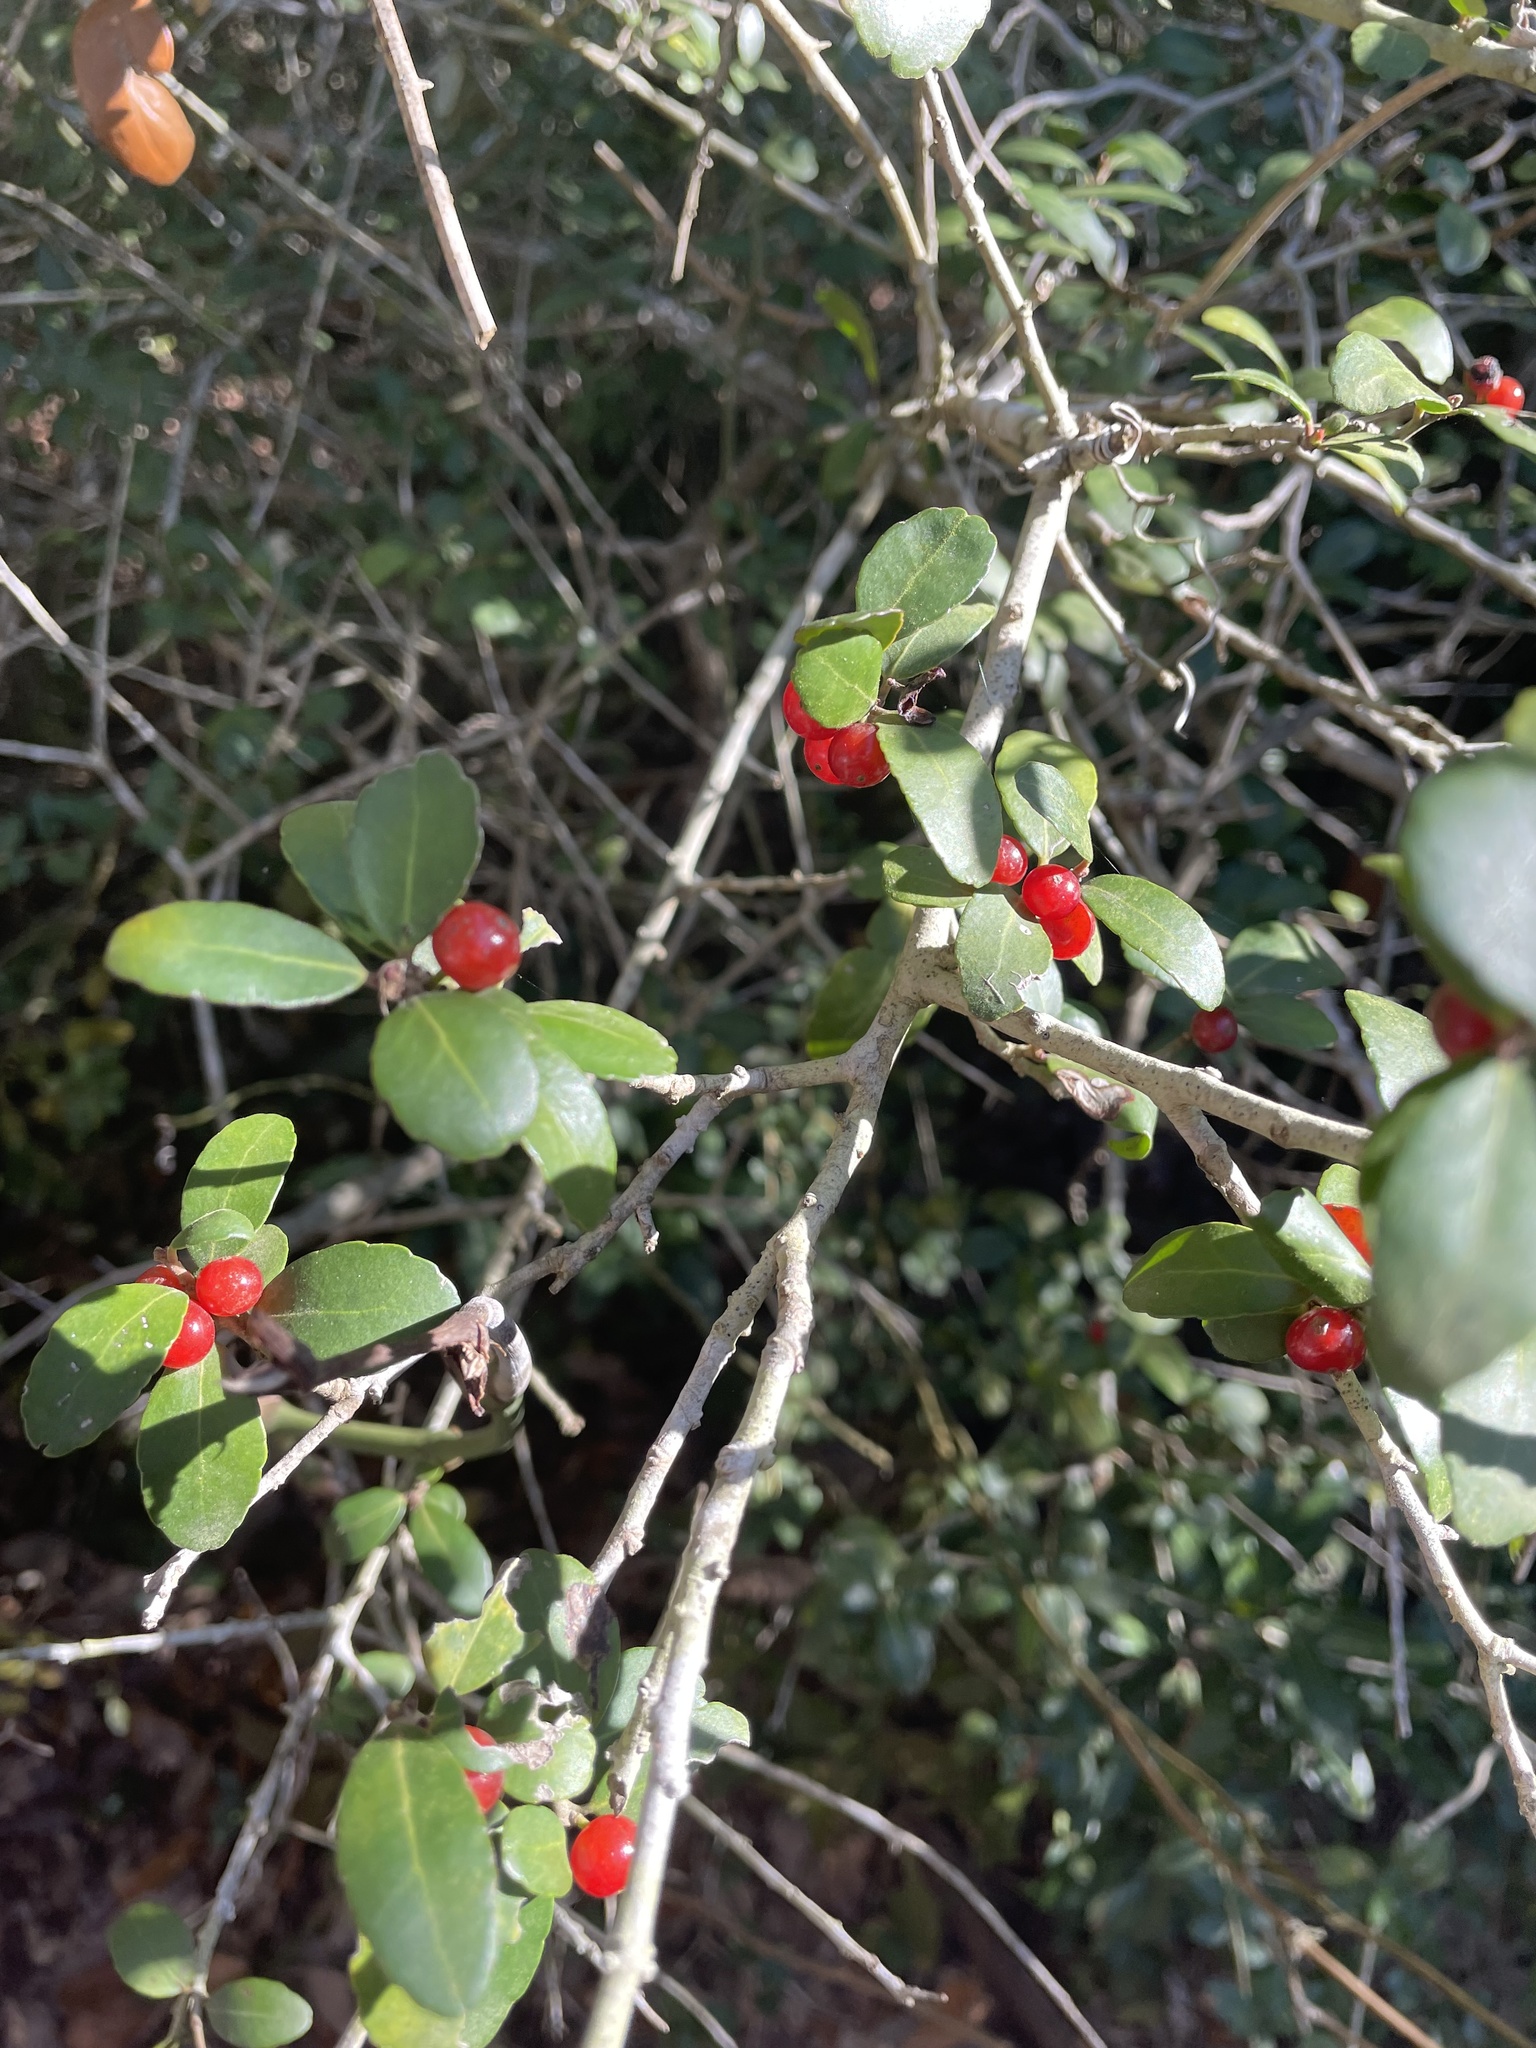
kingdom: Plantae
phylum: Tracheophyta
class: Magnoliopsida
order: Aquifoliales
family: Aquifoliaceae
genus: Ilex
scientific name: Ilex vomitoria
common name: Yaupon holly
